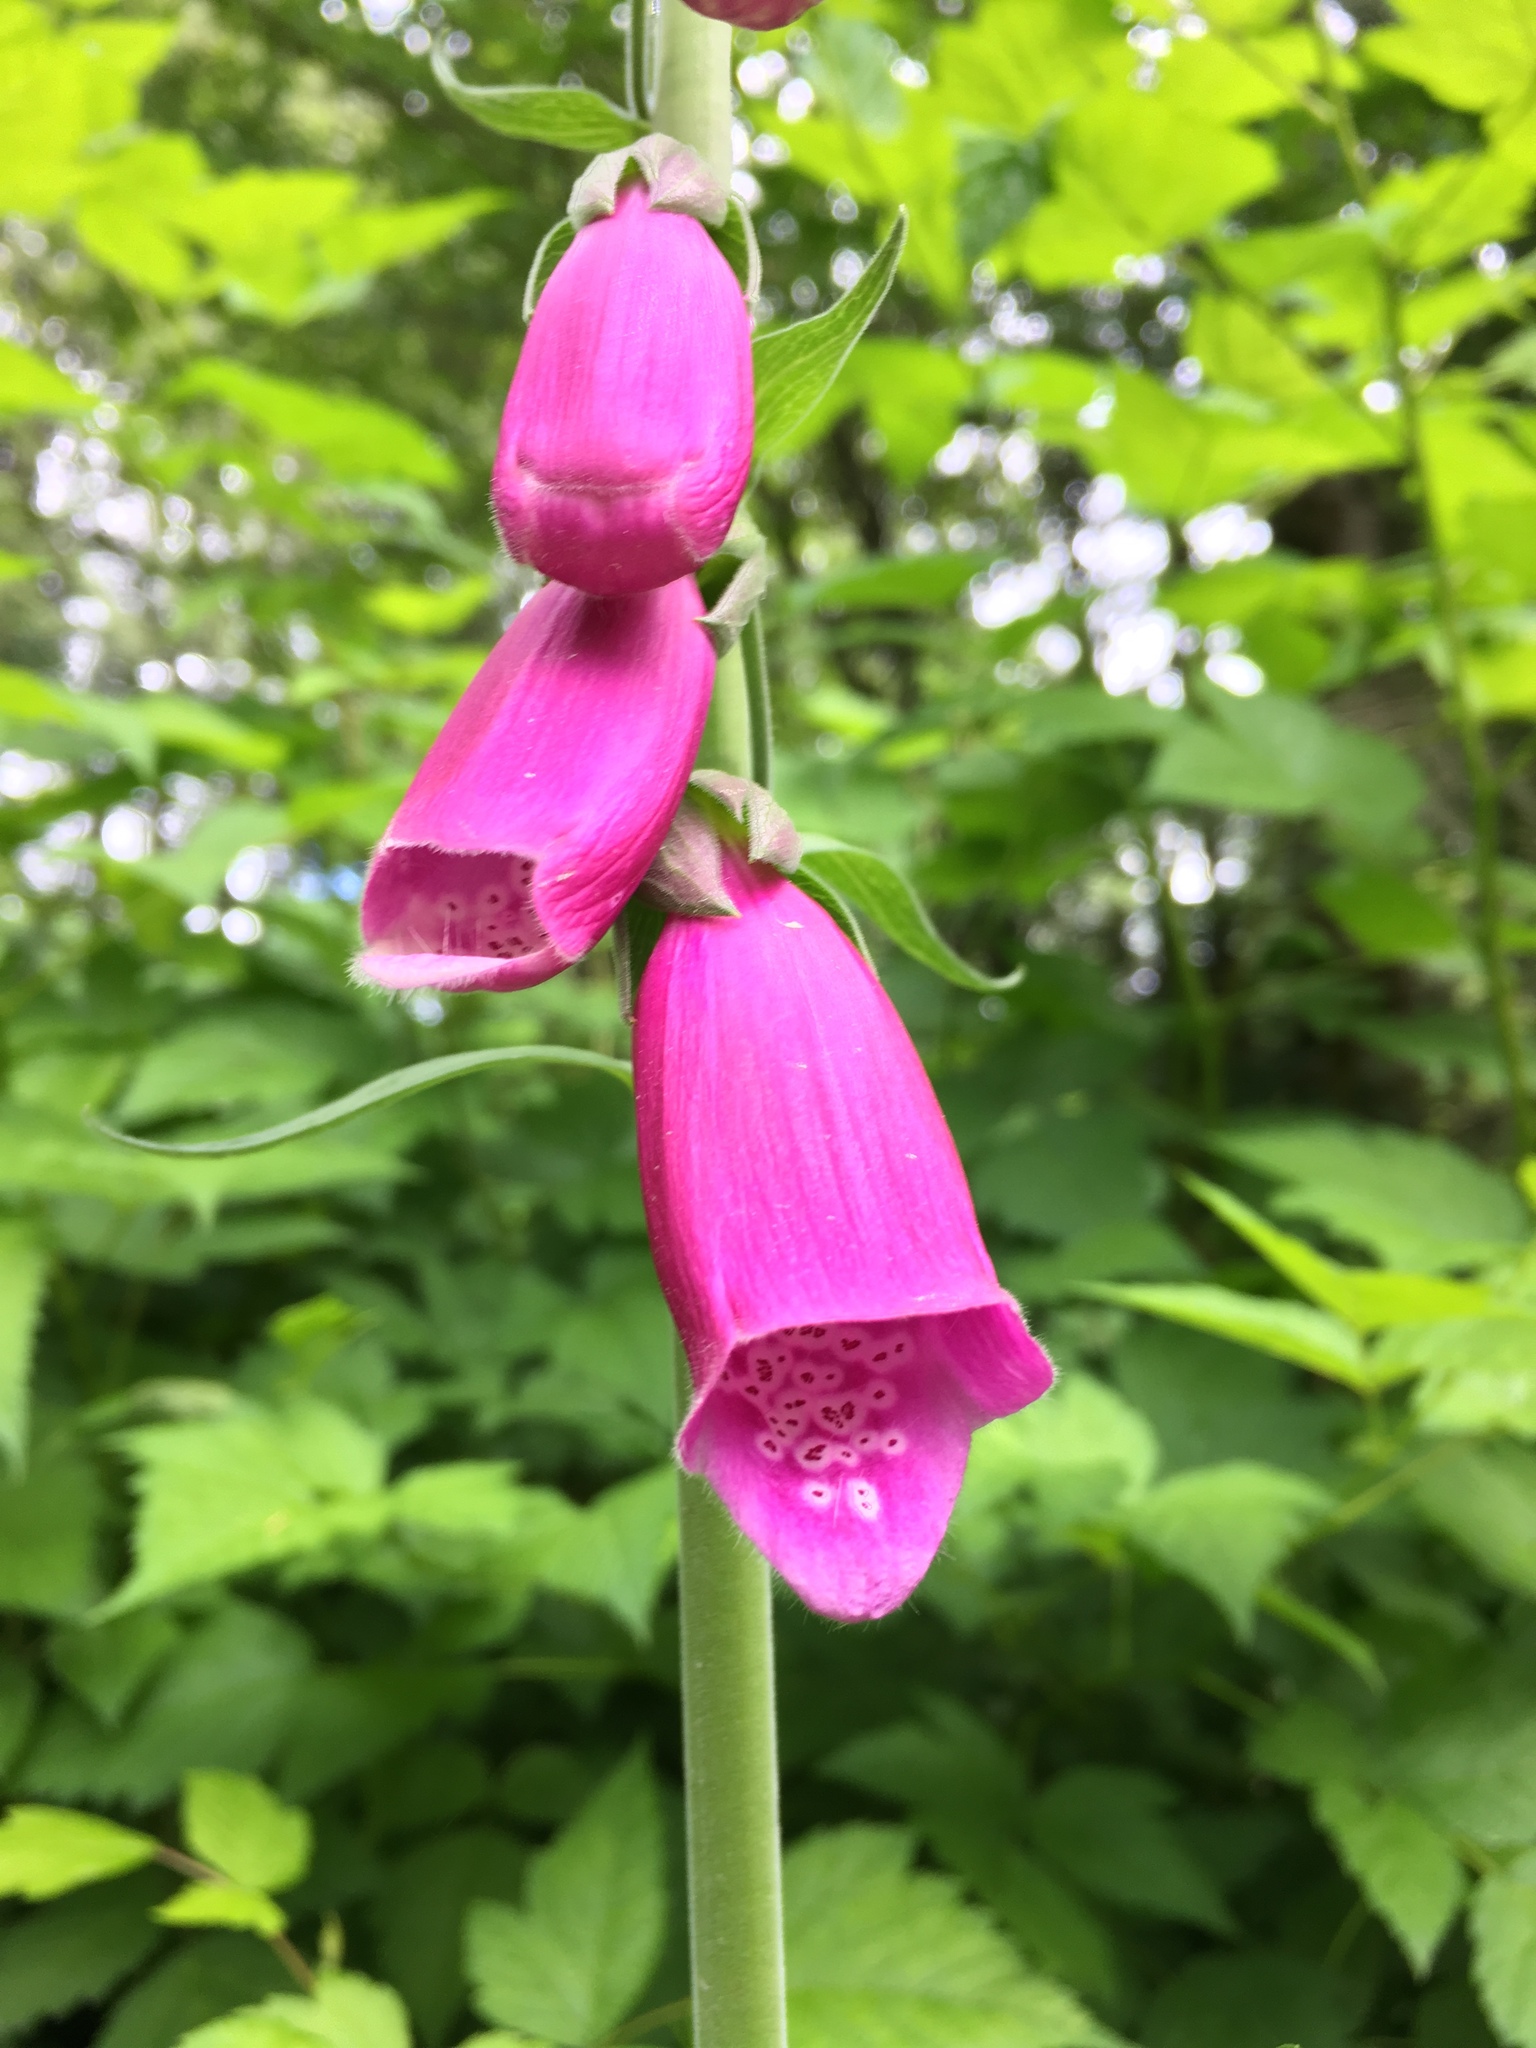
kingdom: Plantae
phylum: Tracheophyta
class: Magnoliopsida
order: Lamiales
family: Plantaginaceae
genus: Digitalis
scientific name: Digitalis purpurea
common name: Foxglove
